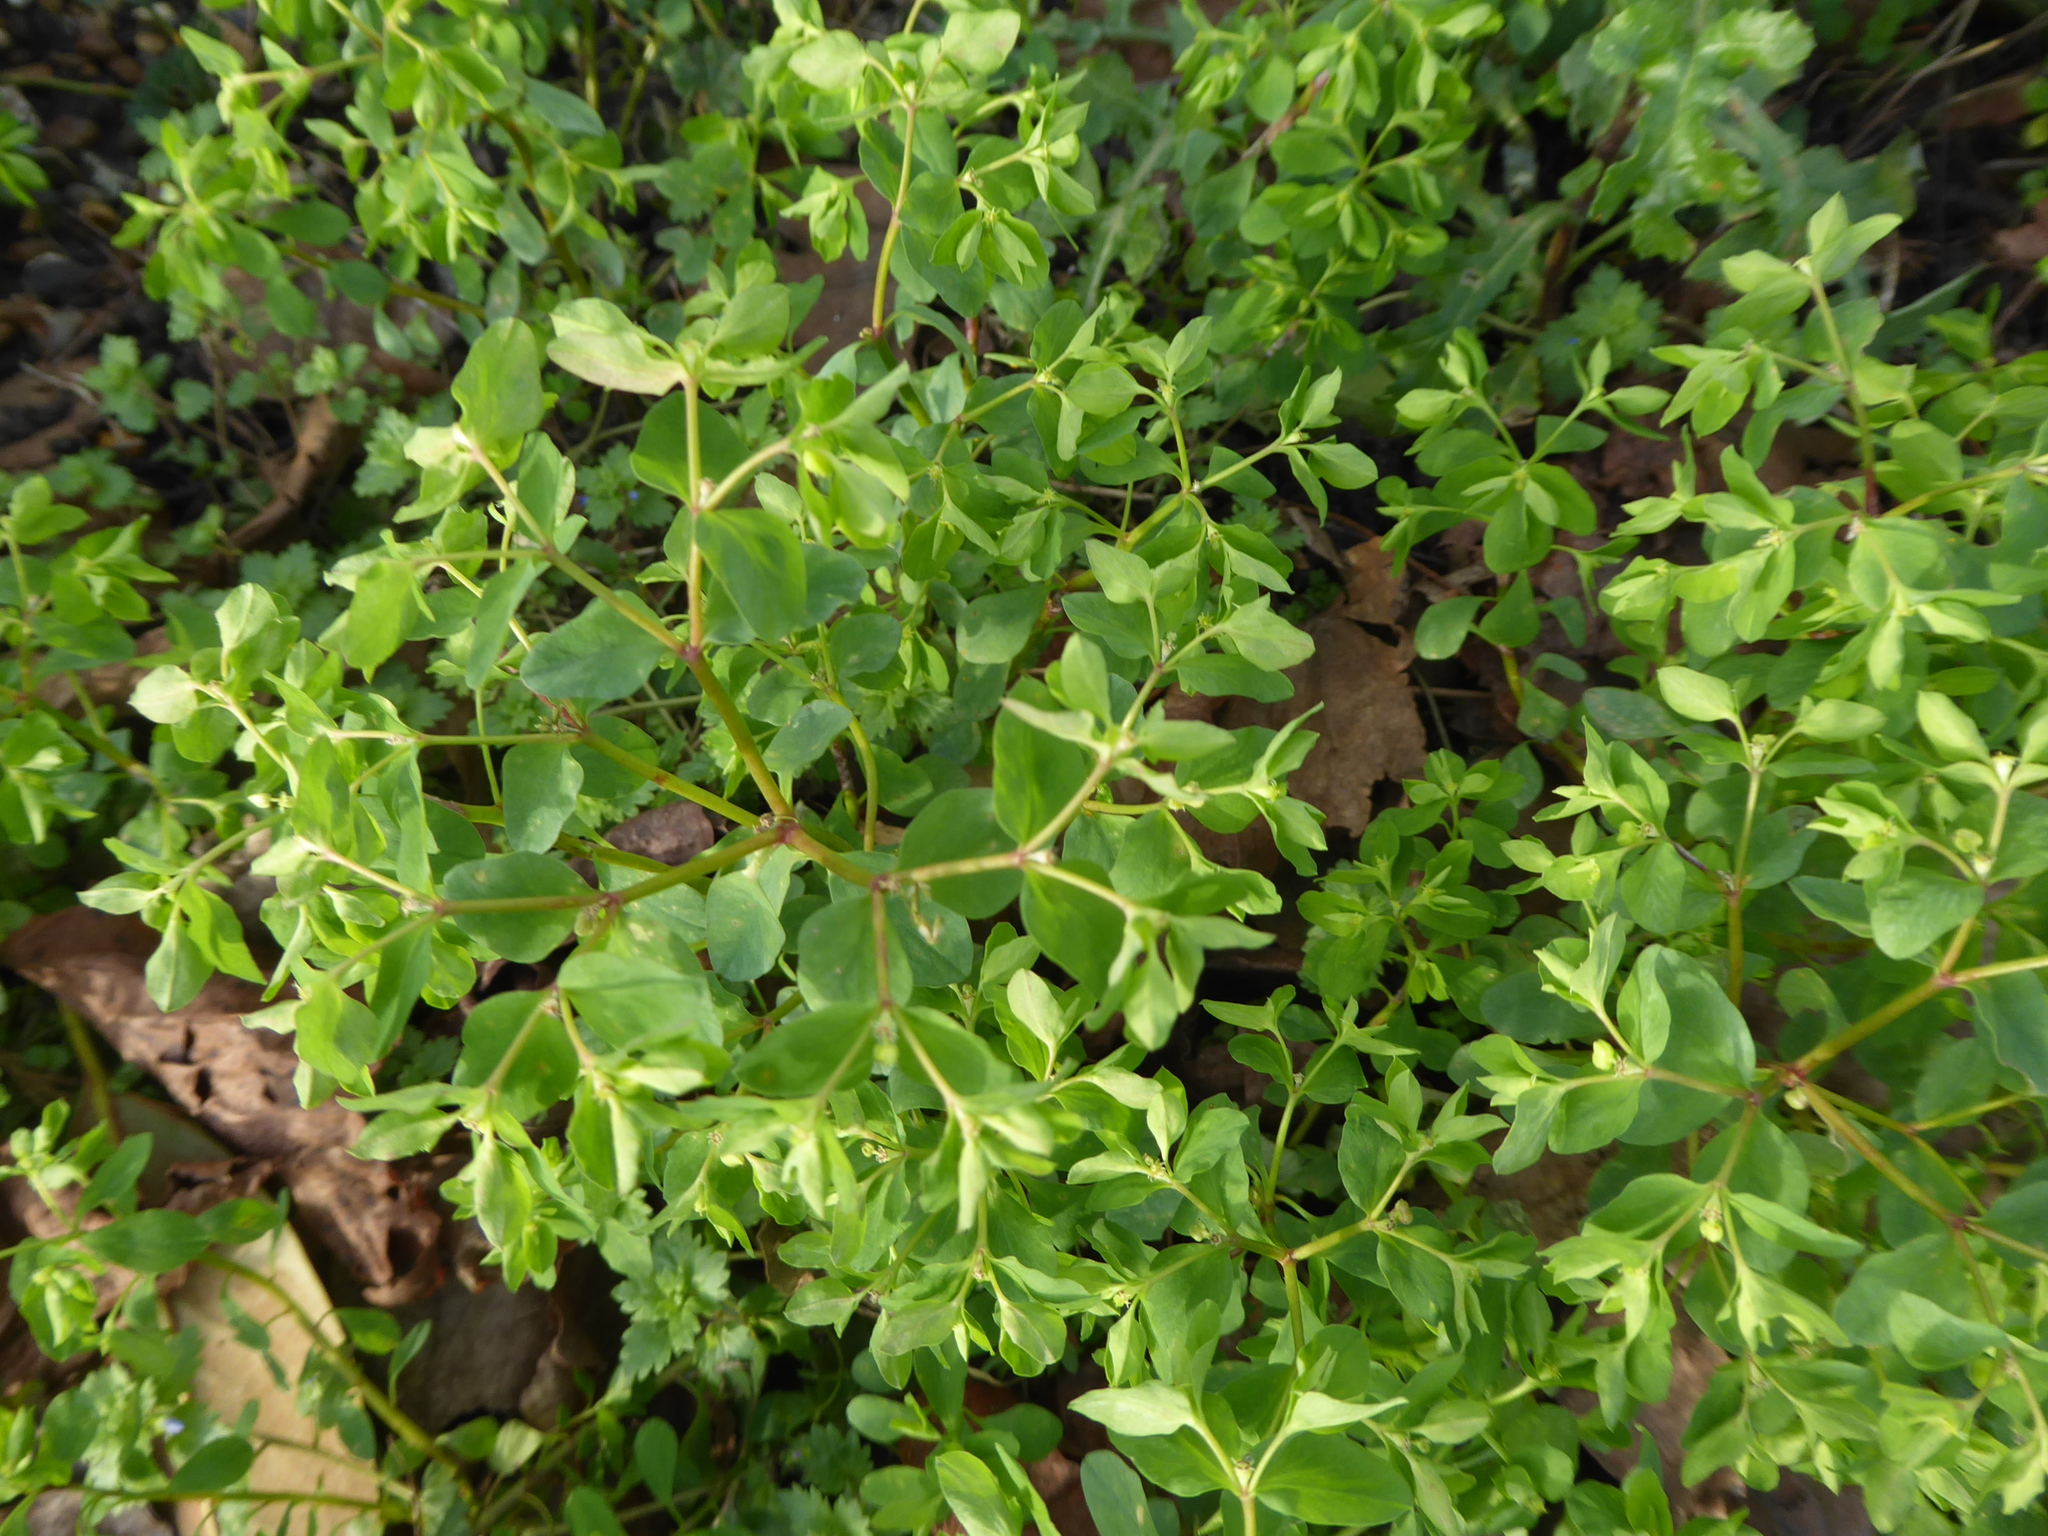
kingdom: Plantae
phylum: Tracheophyta
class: Magnoliopsida
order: Malpighiales
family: Euphorbiaceae
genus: Euphorbia
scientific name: Euphorbia peplus
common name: Petty spurge
